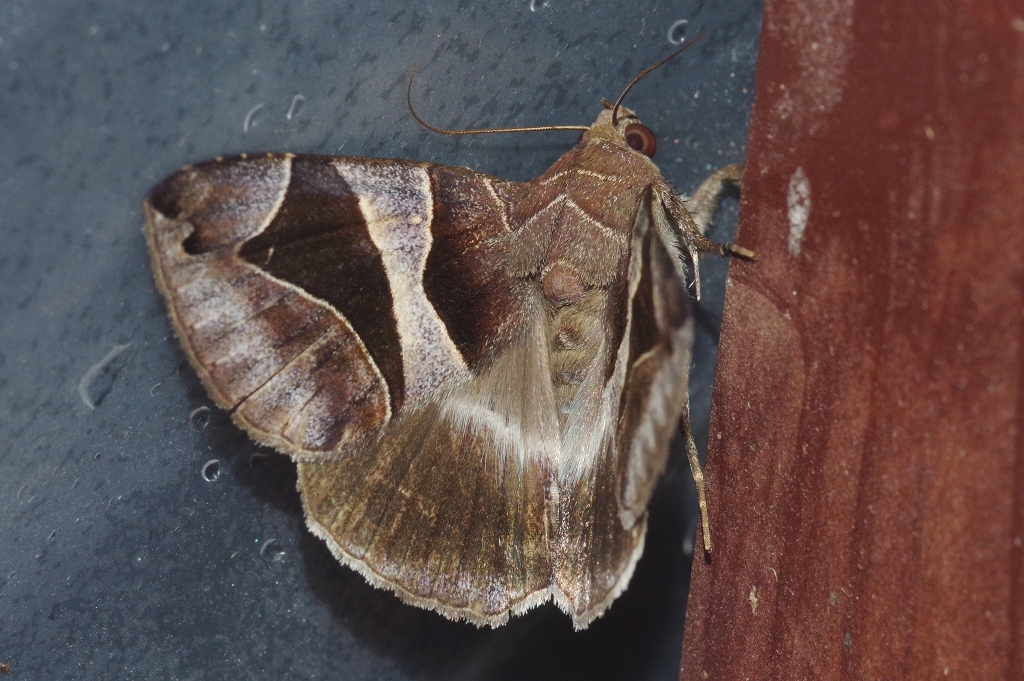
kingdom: Animalia
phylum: Arthropoda
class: Insecta
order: Lepidoptera
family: Erebidae
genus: Bastilla
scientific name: Bastilla arcuata
